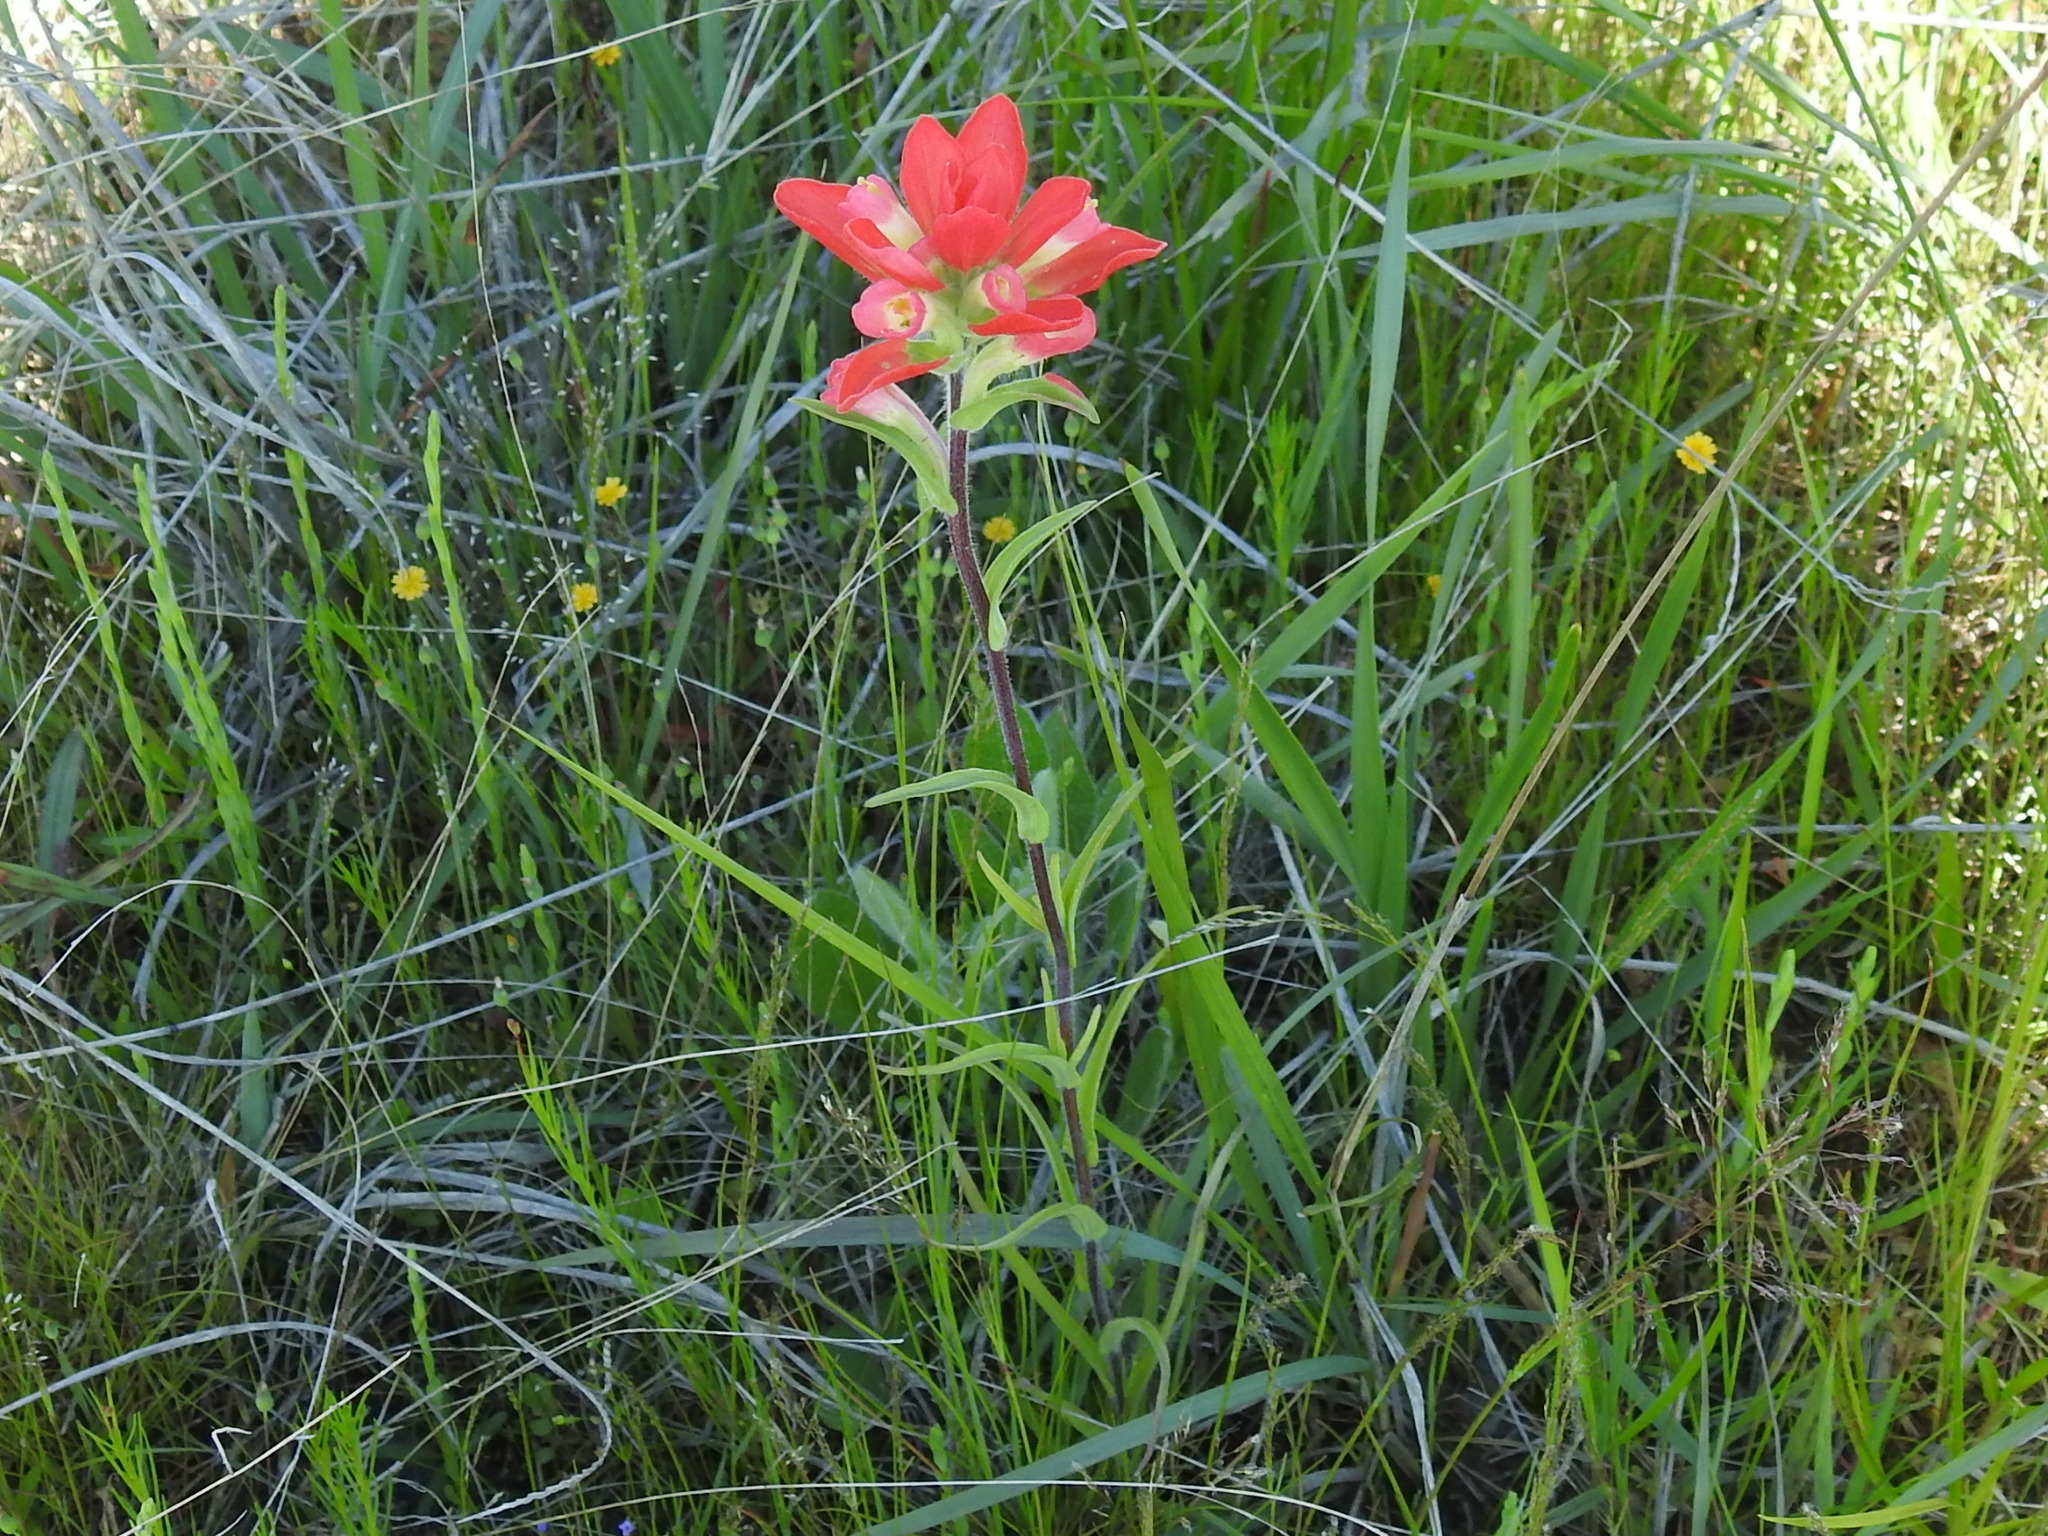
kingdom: Plantae
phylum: Tracheophyta
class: Magnoliopsida
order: Lamiales
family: Orobanchaceae
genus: Castilleja
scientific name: Castilleja indivisa
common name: Texas paintbrush
